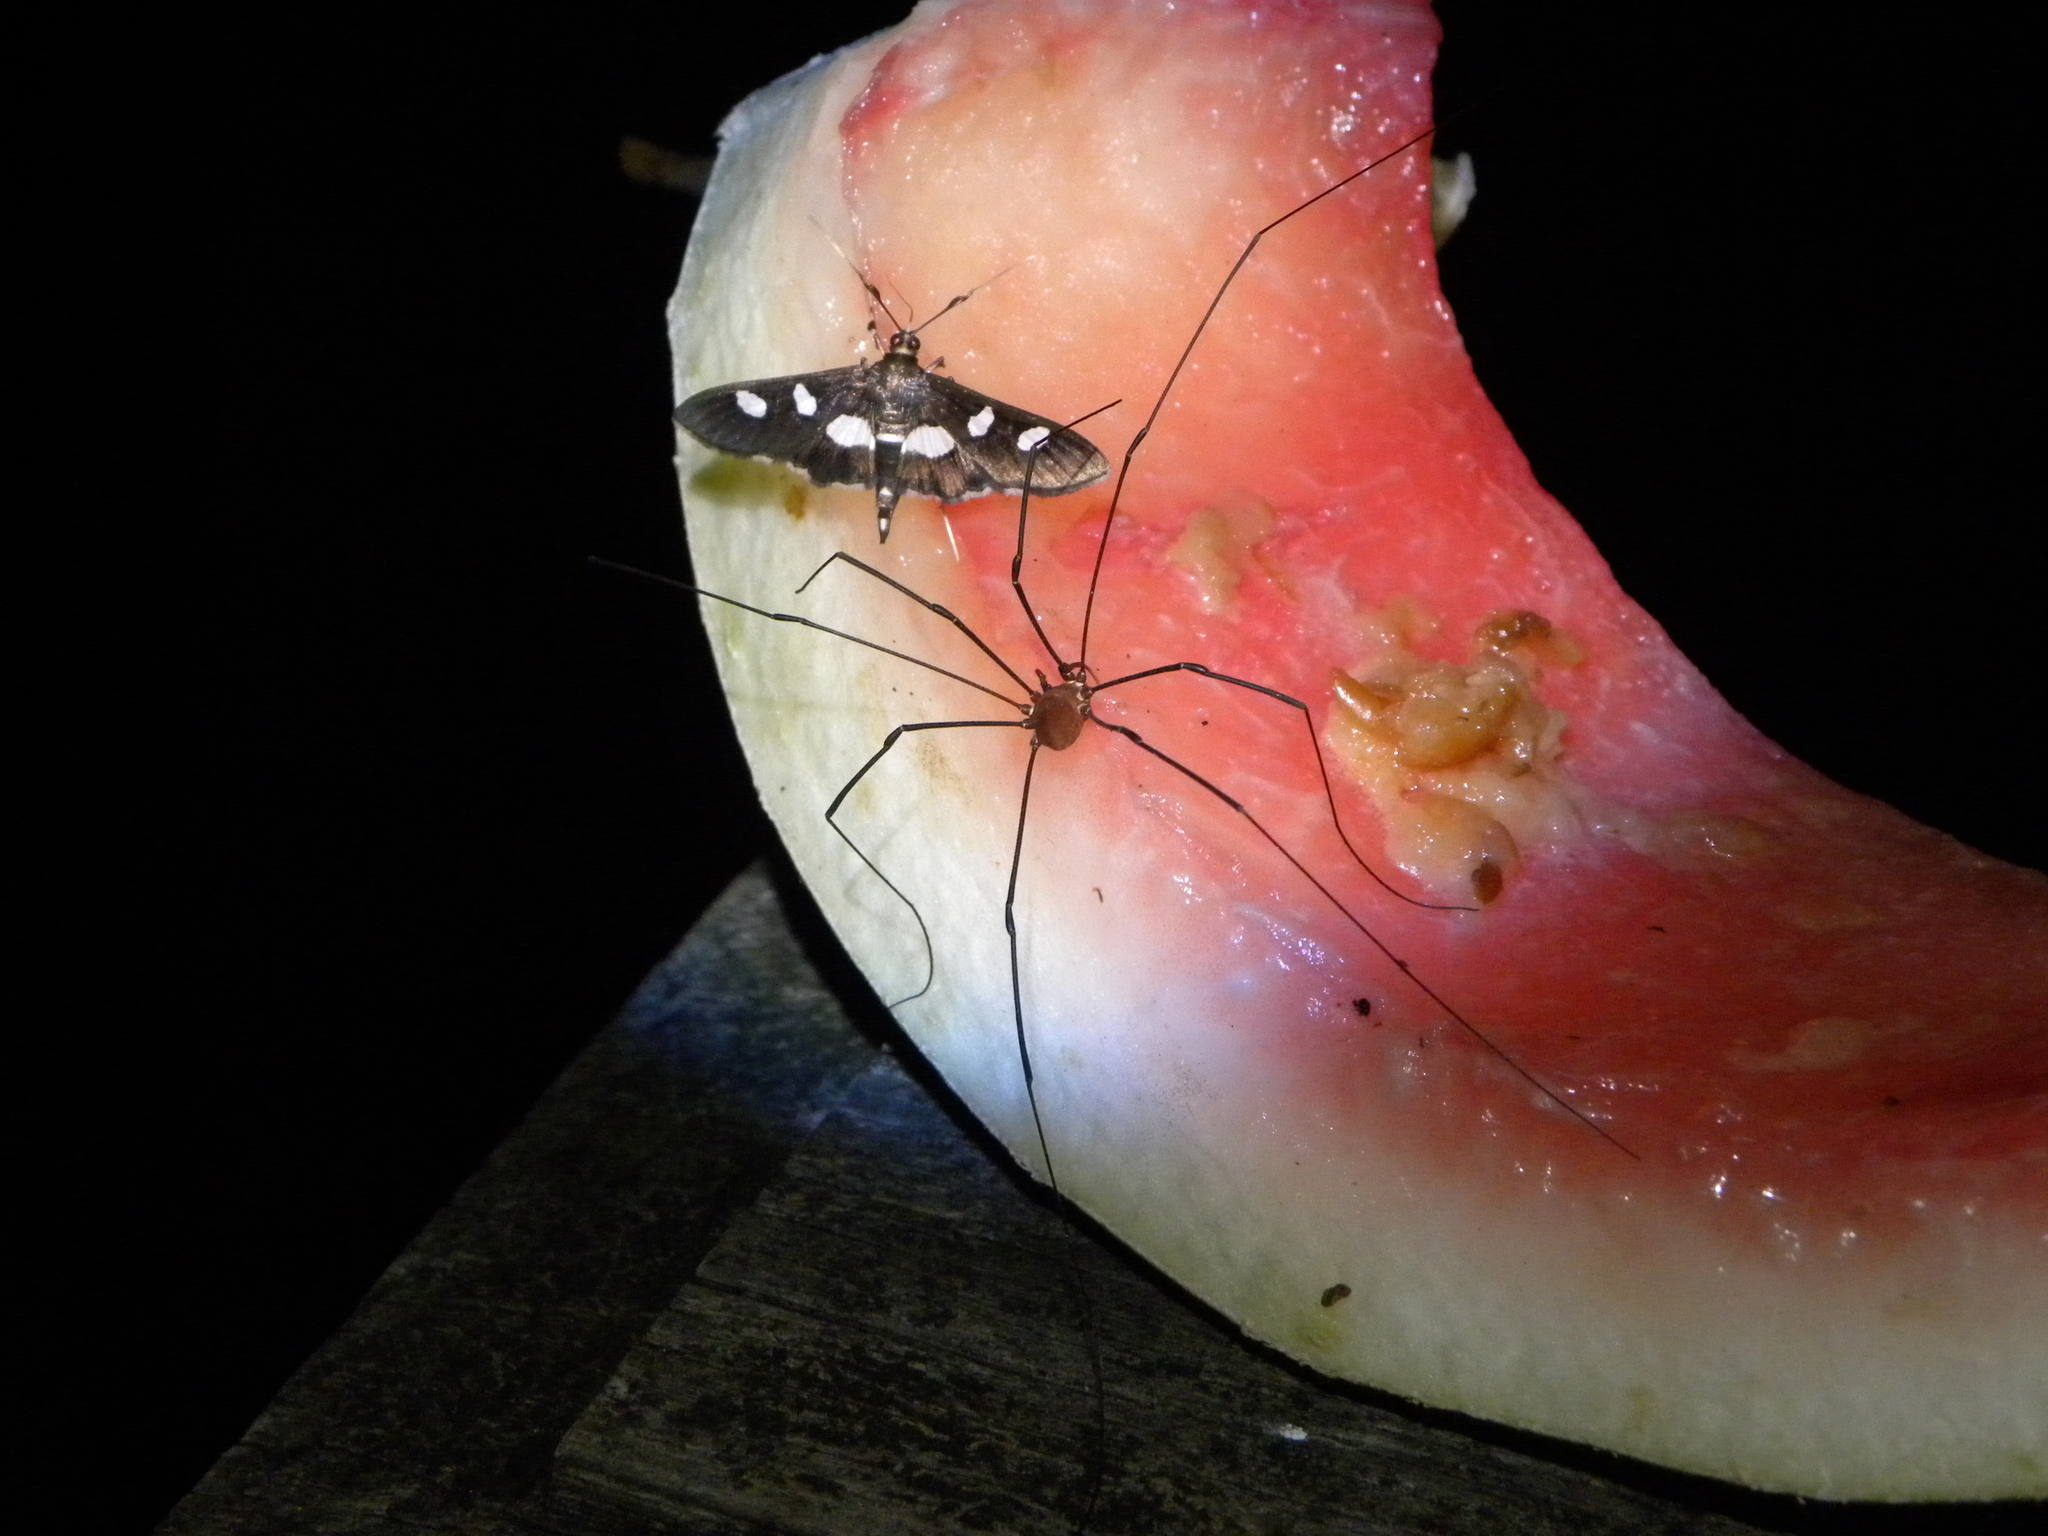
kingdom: Animalia
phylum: Arthropoda
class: Insecta
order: Lepidoptera
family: Crambidae
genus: Desmia
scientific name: Desmia
